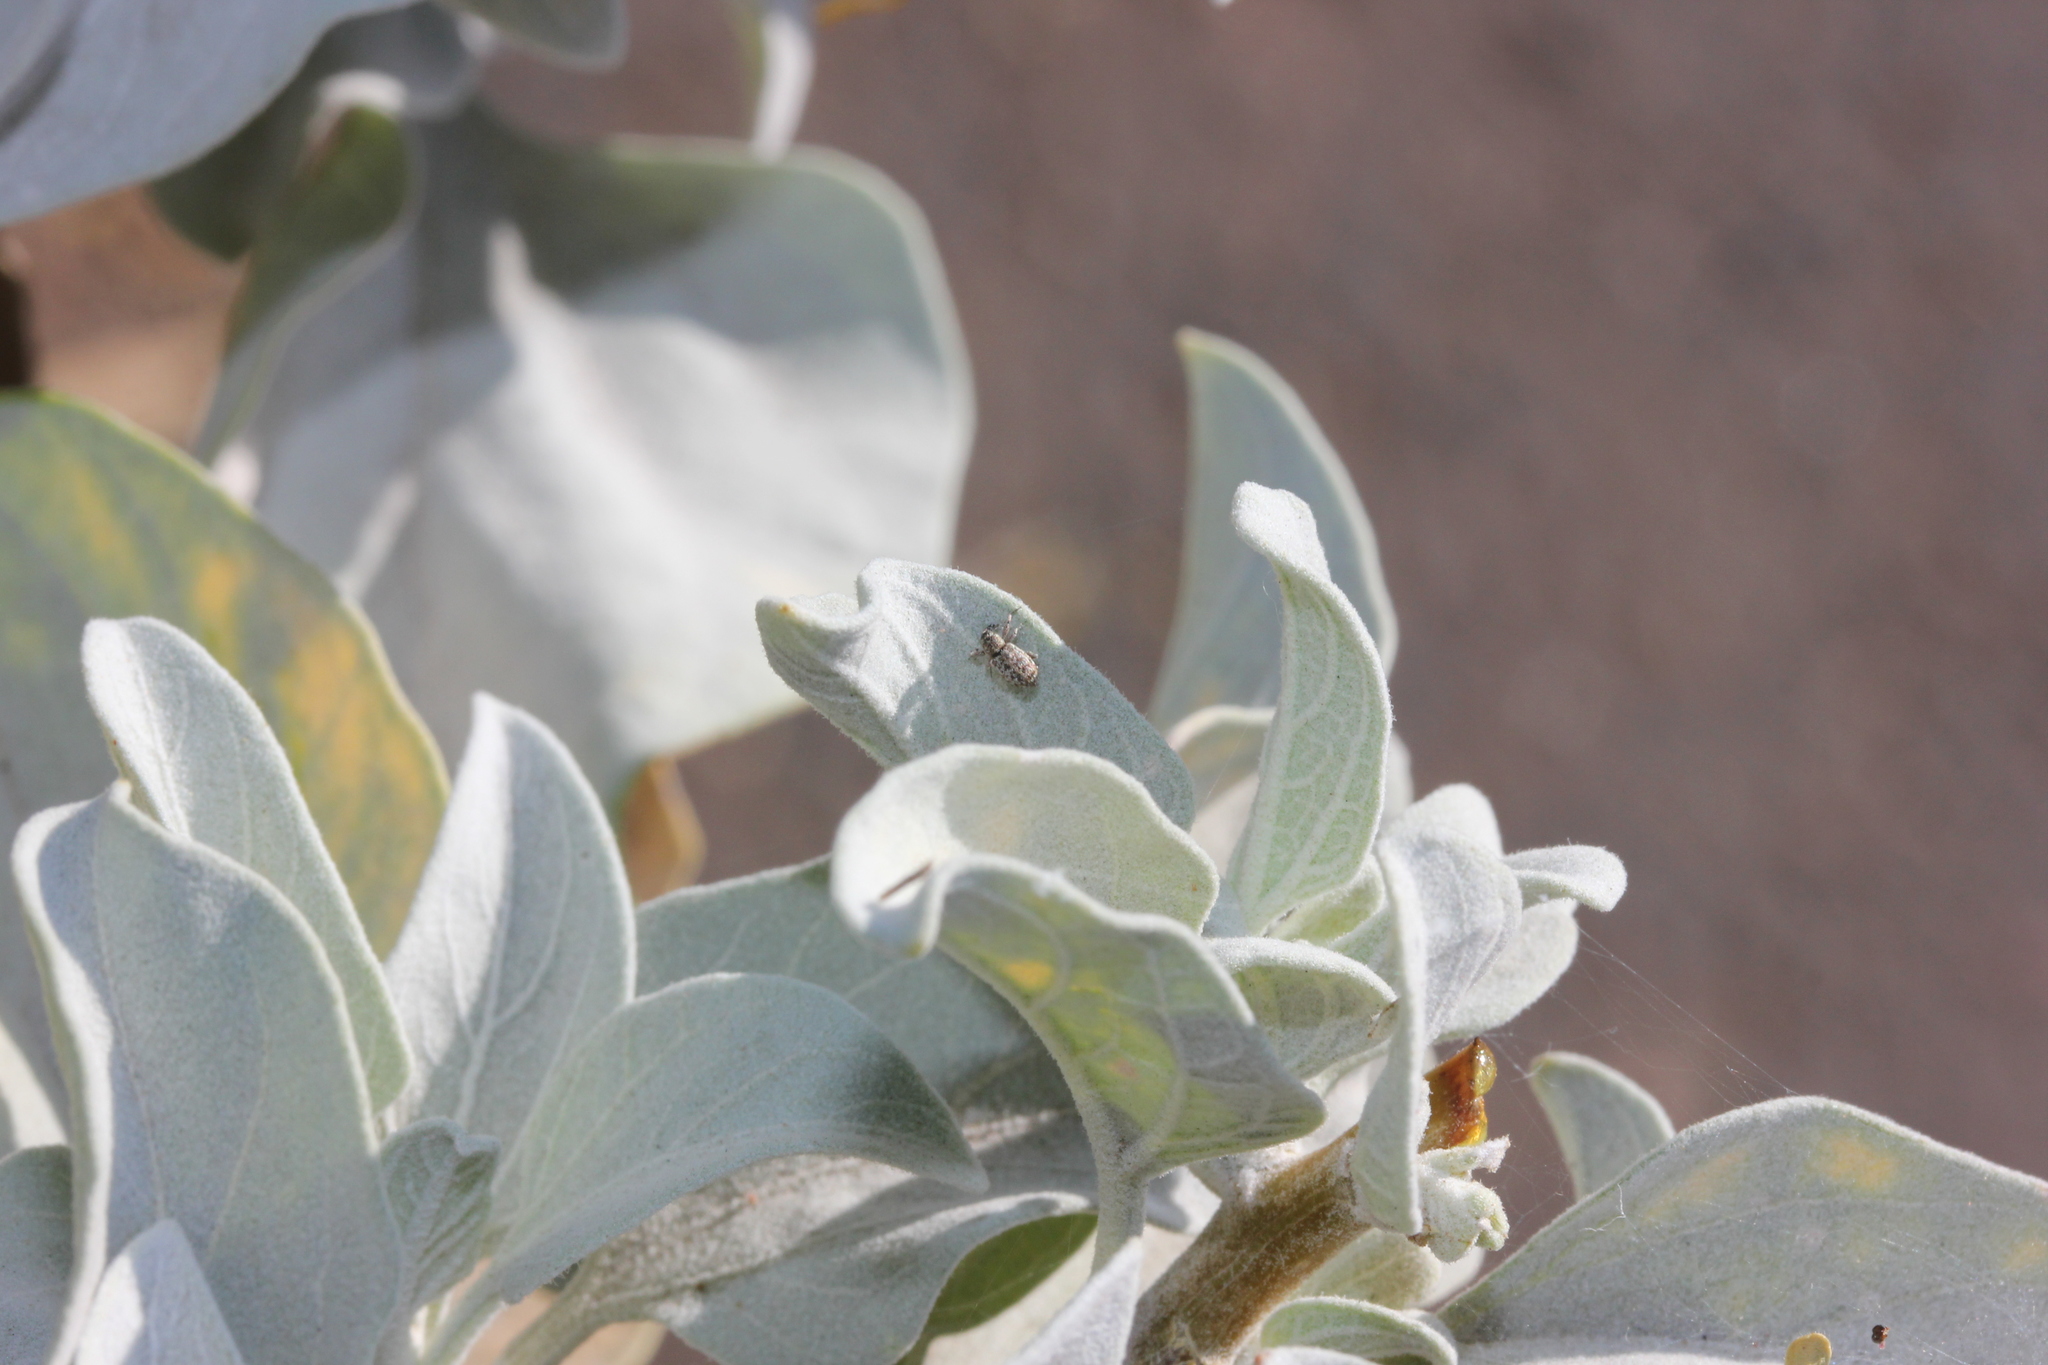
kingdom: Plantae
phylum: Tracheophyta
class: Magnoliopsida
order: Asterales
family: Asteraceae
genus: Encelia
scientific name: Encelia farinosa
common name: Brittlebush
